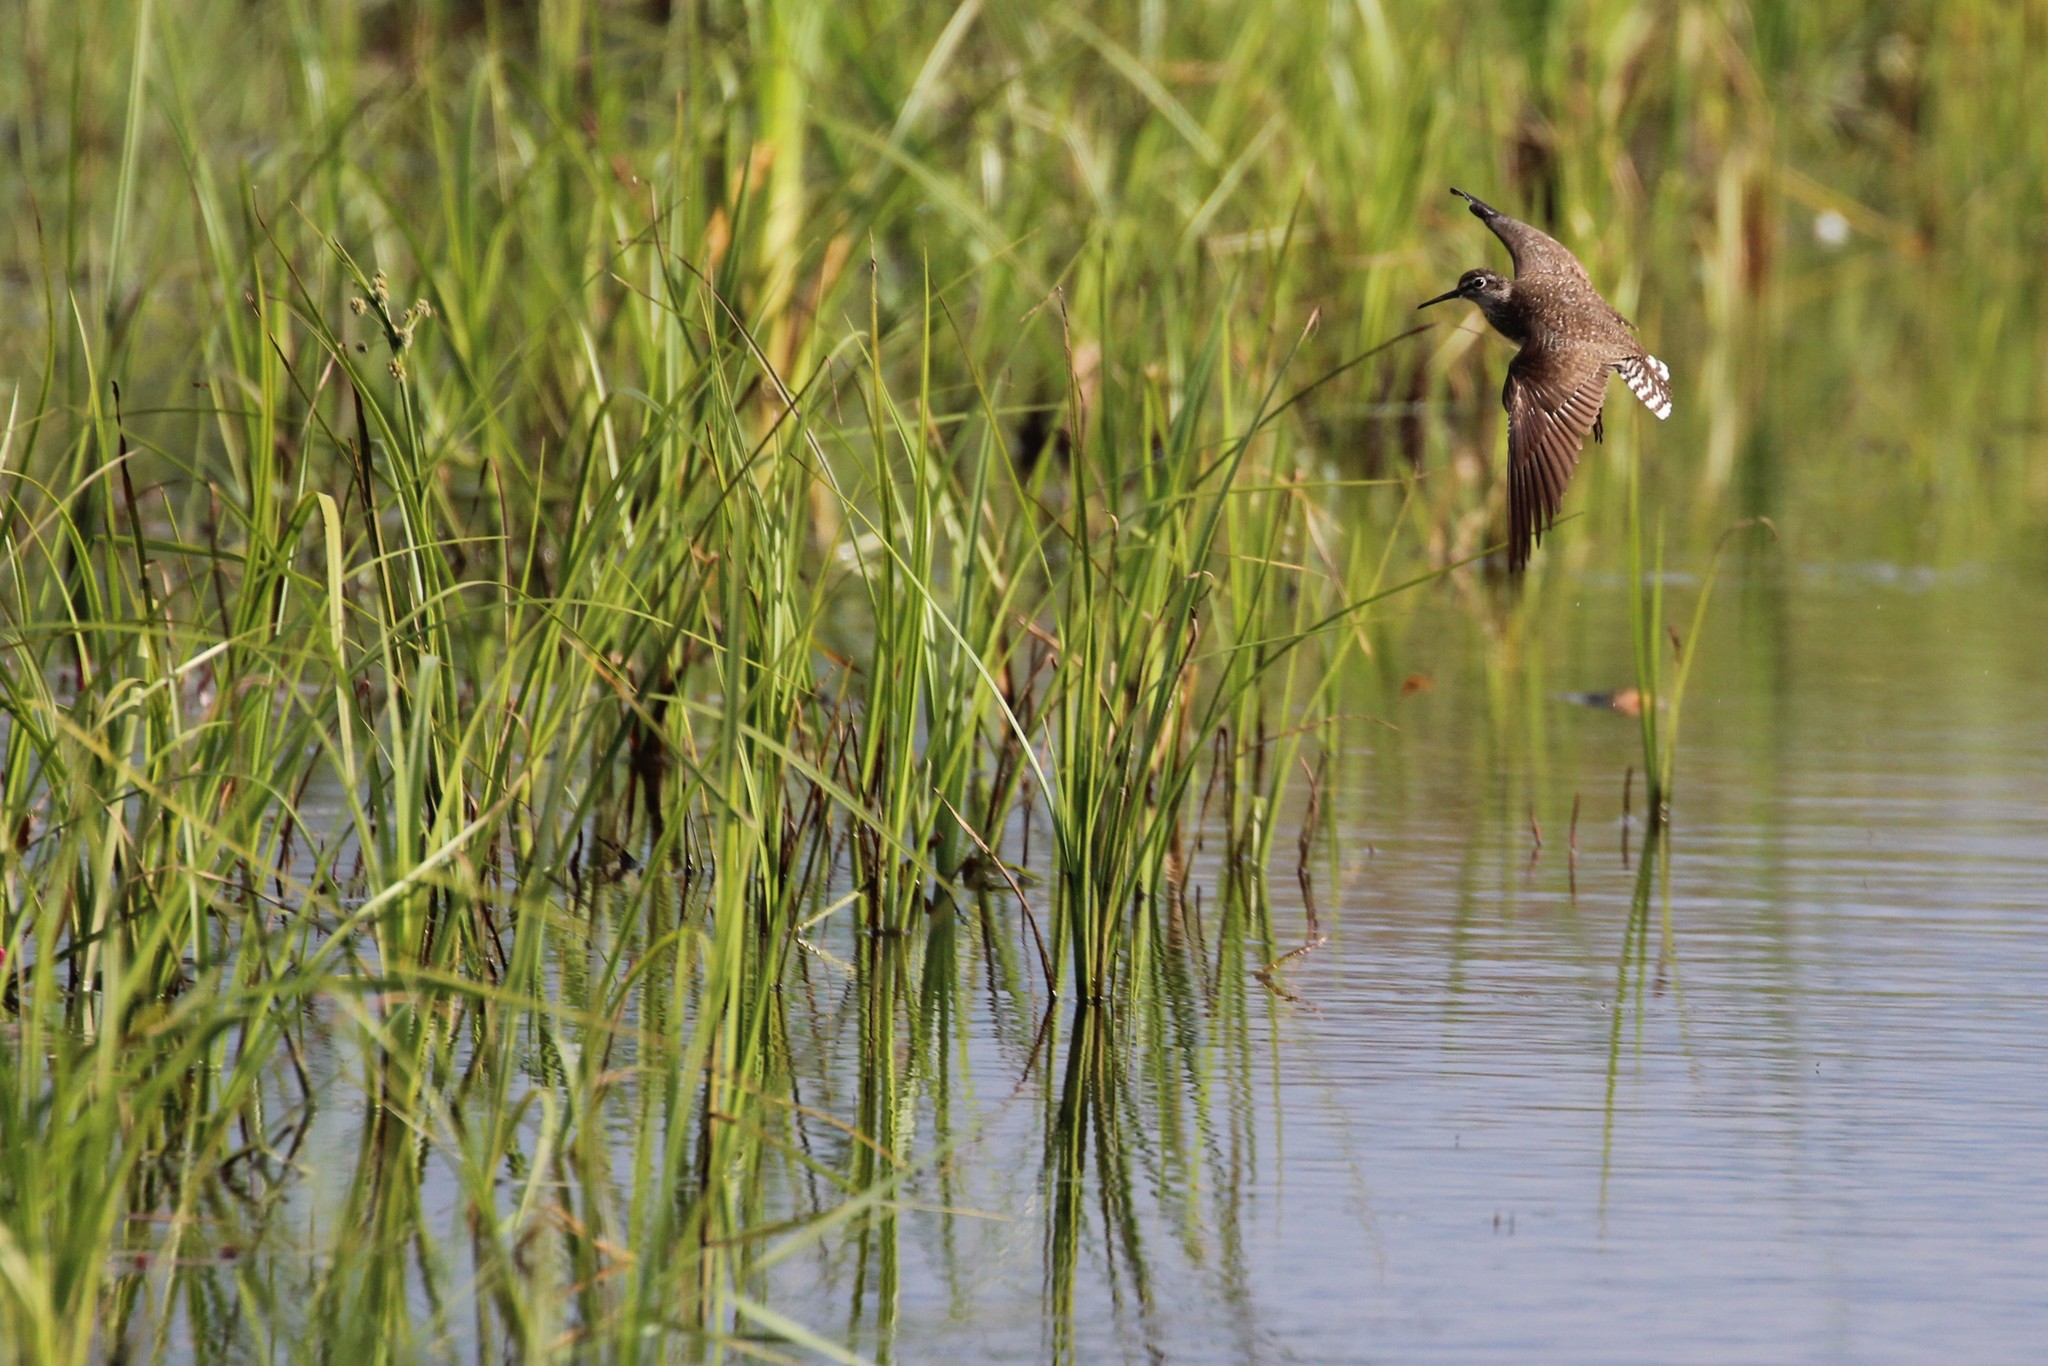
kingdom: Animalia
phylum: Chordata
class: Aves
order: Charadriiformes
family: Scolopacidae
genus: Tringa
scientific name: Tringa solitaria
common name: Solitary sandpiper
